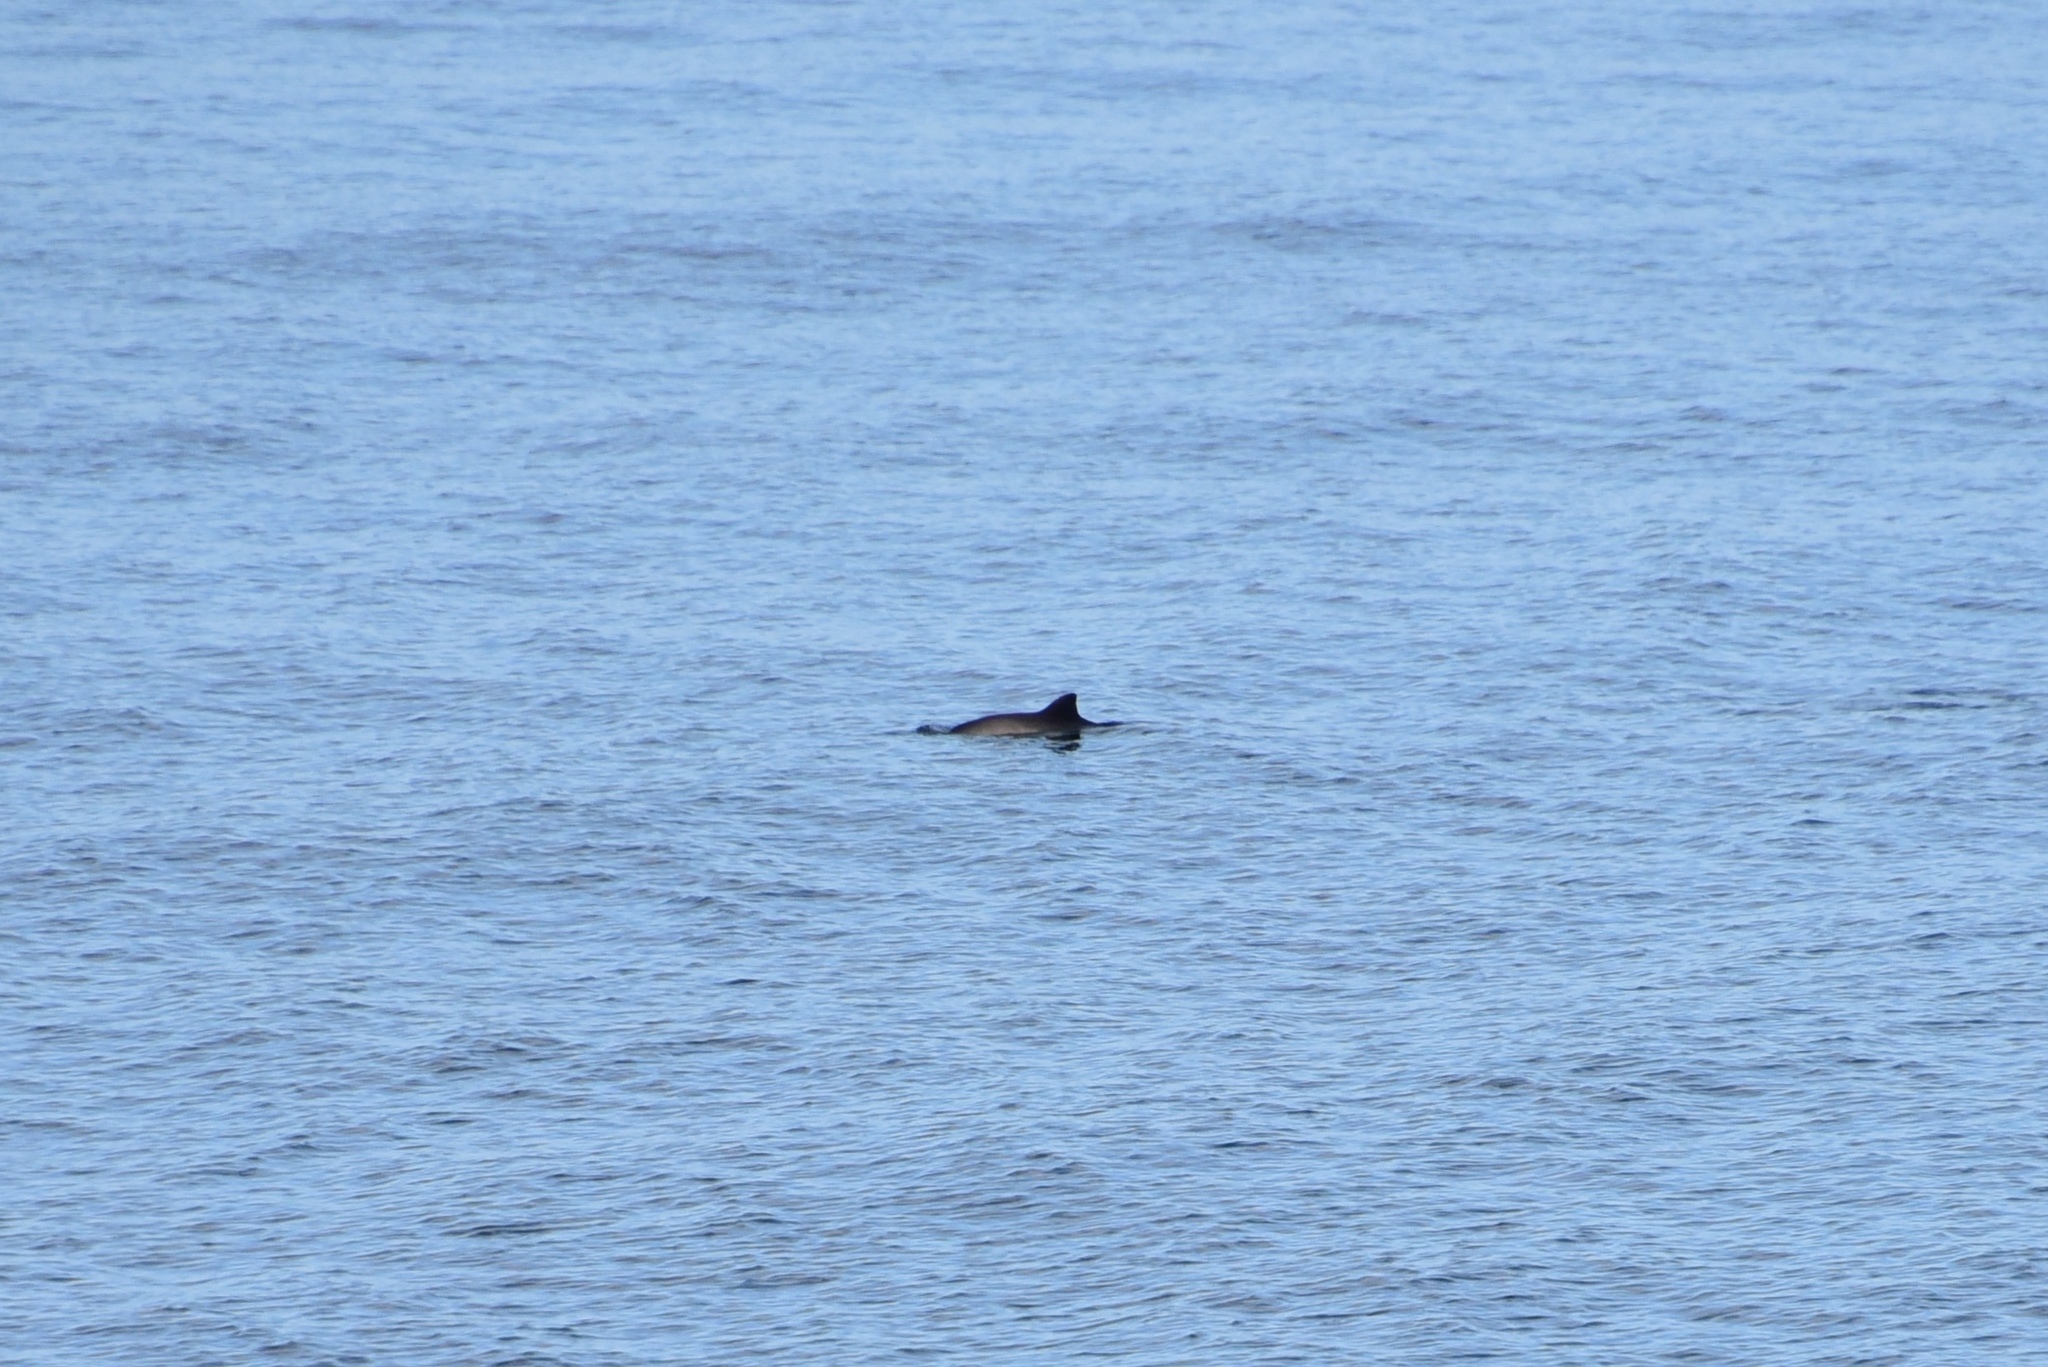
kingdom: Animalia
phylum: Chordata
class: Mammalia
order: Cetacea
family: Phocoenidae
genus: Phocoena
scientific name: Phocoena phocoena
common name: Harbor porpoise
